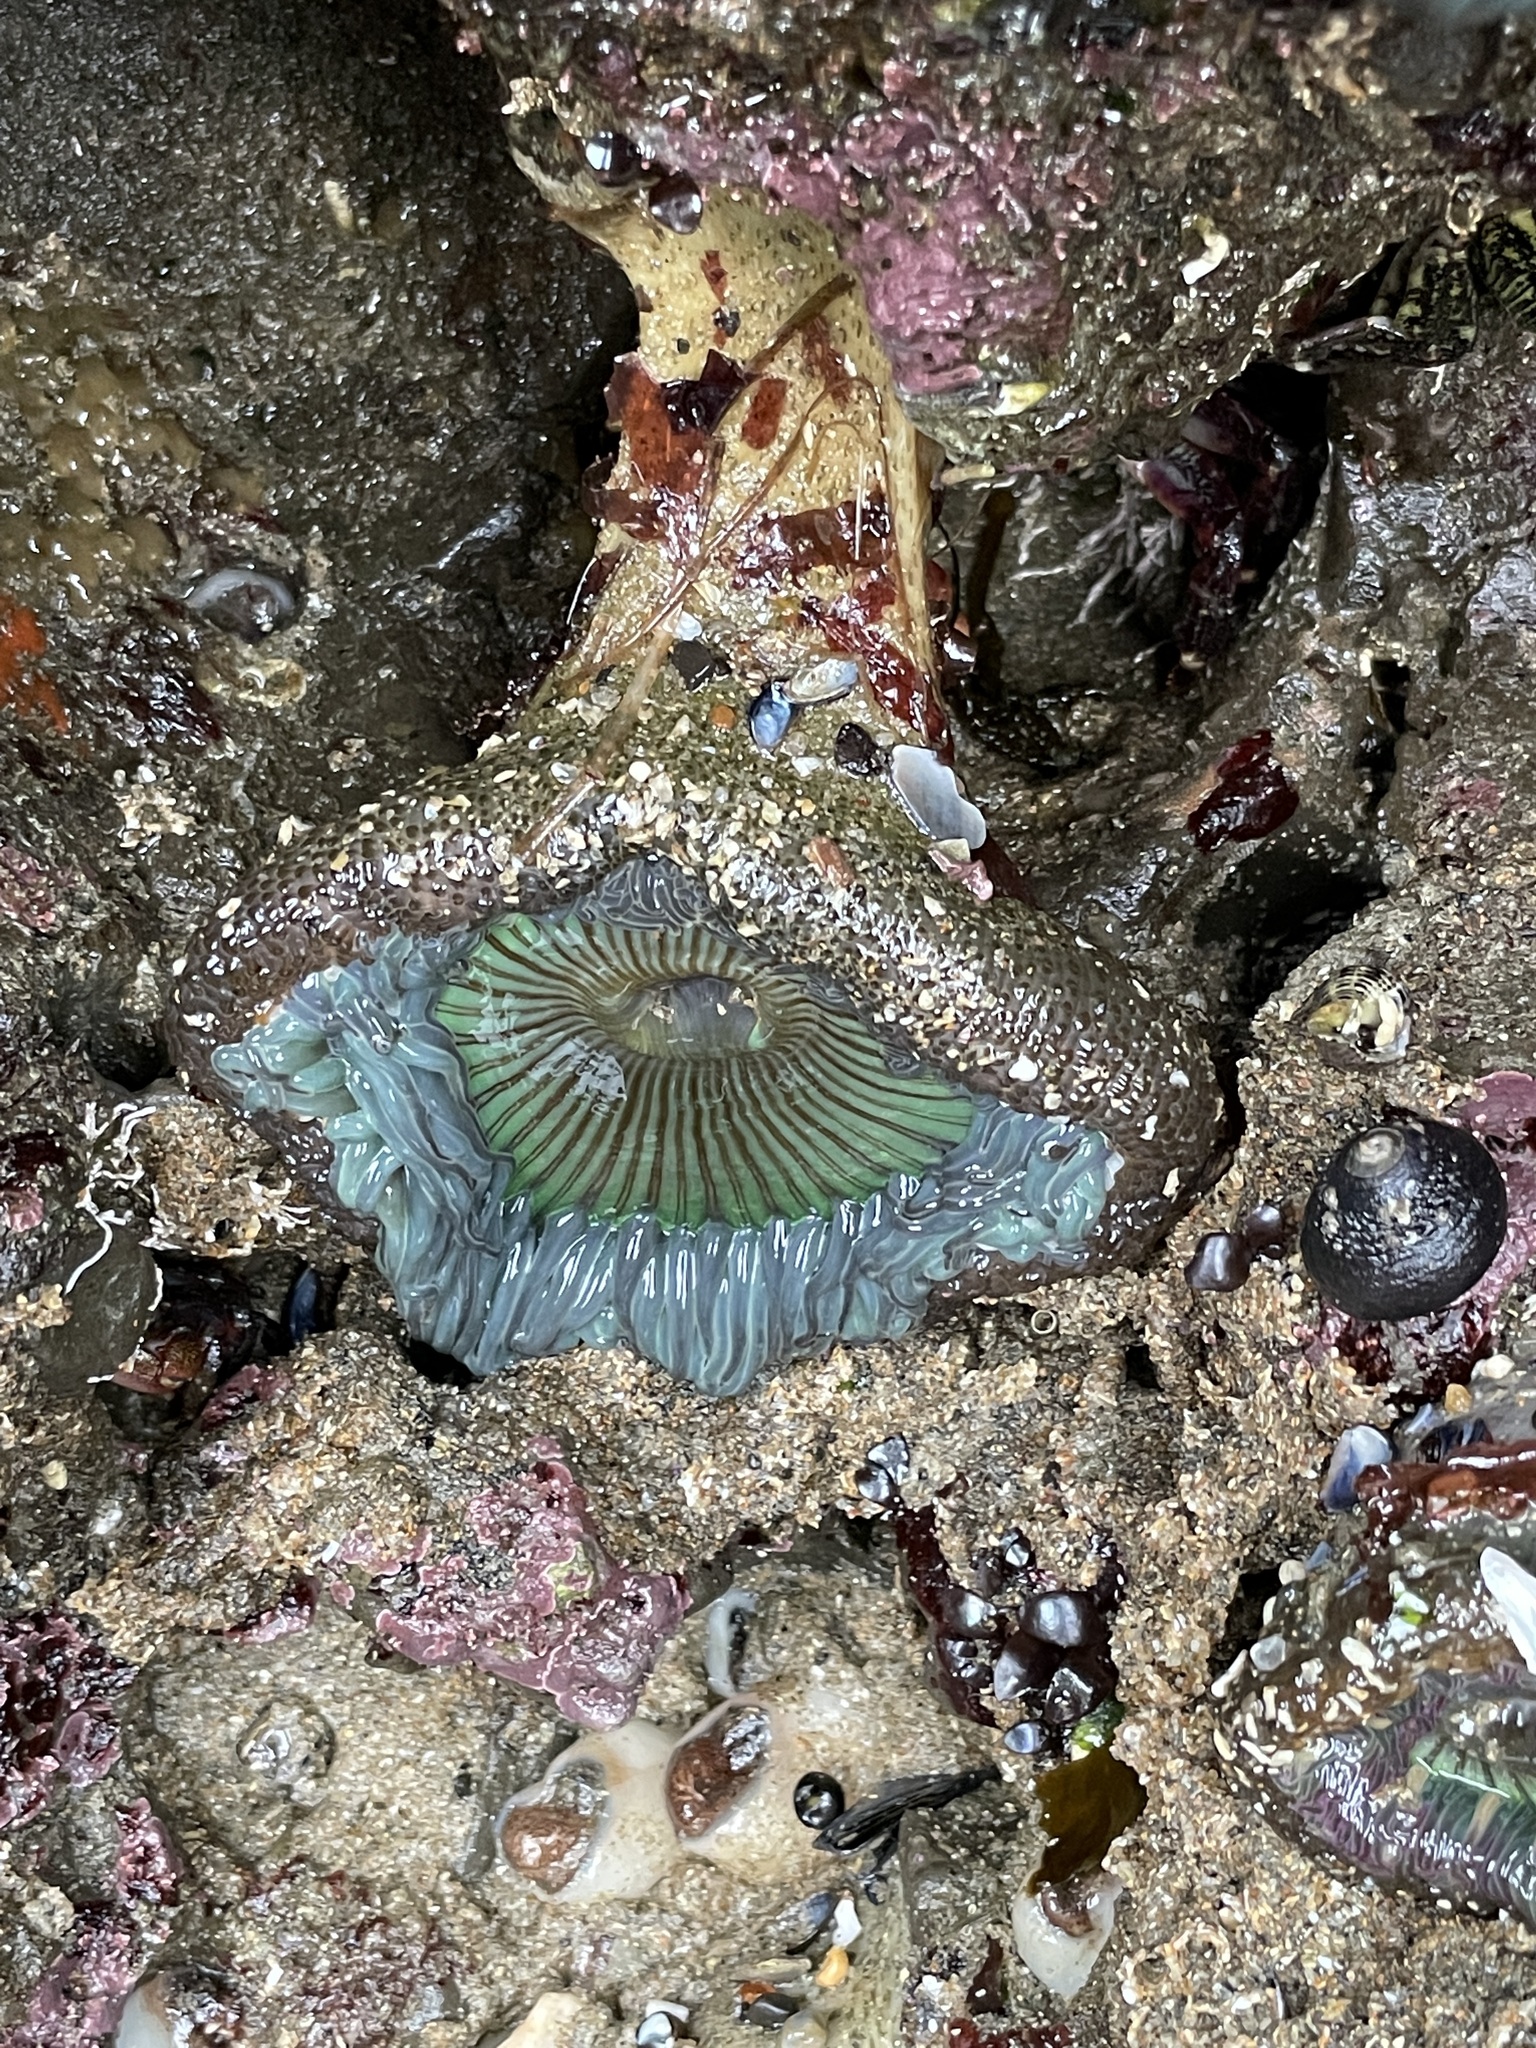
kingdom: Animalia
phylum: Cnidaria
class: Anthozoa
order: Actiniaria
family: Actiniidae
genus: Anthopleura
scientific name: Anthopleura sola
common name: Sun anemone
